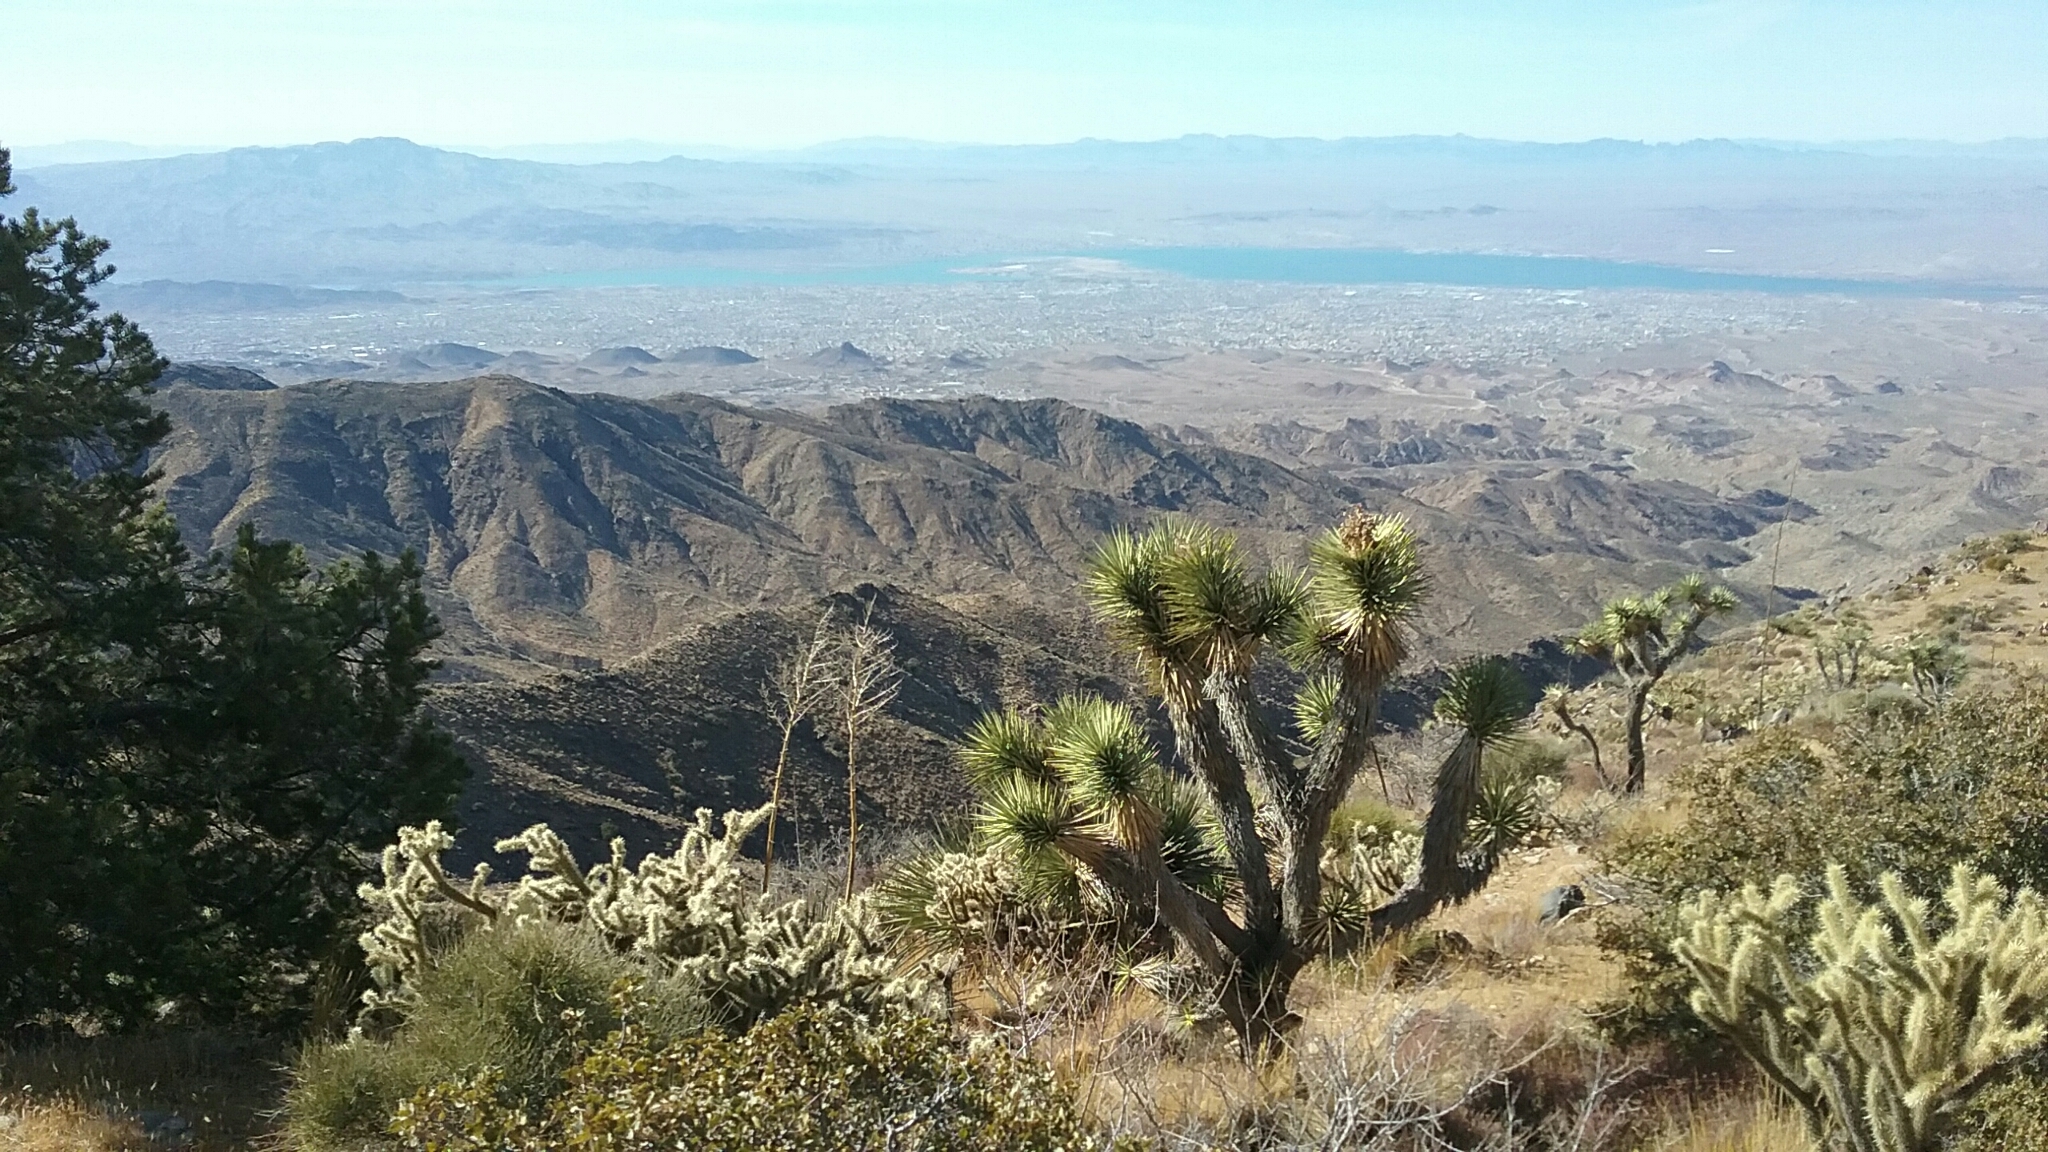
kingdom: Plantae
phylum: Tracheophyta
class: Liliopsida
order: Asparagales
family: Asparagaceae
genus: Yucca
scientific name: Yucca brevifolia
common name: Joshua tree
